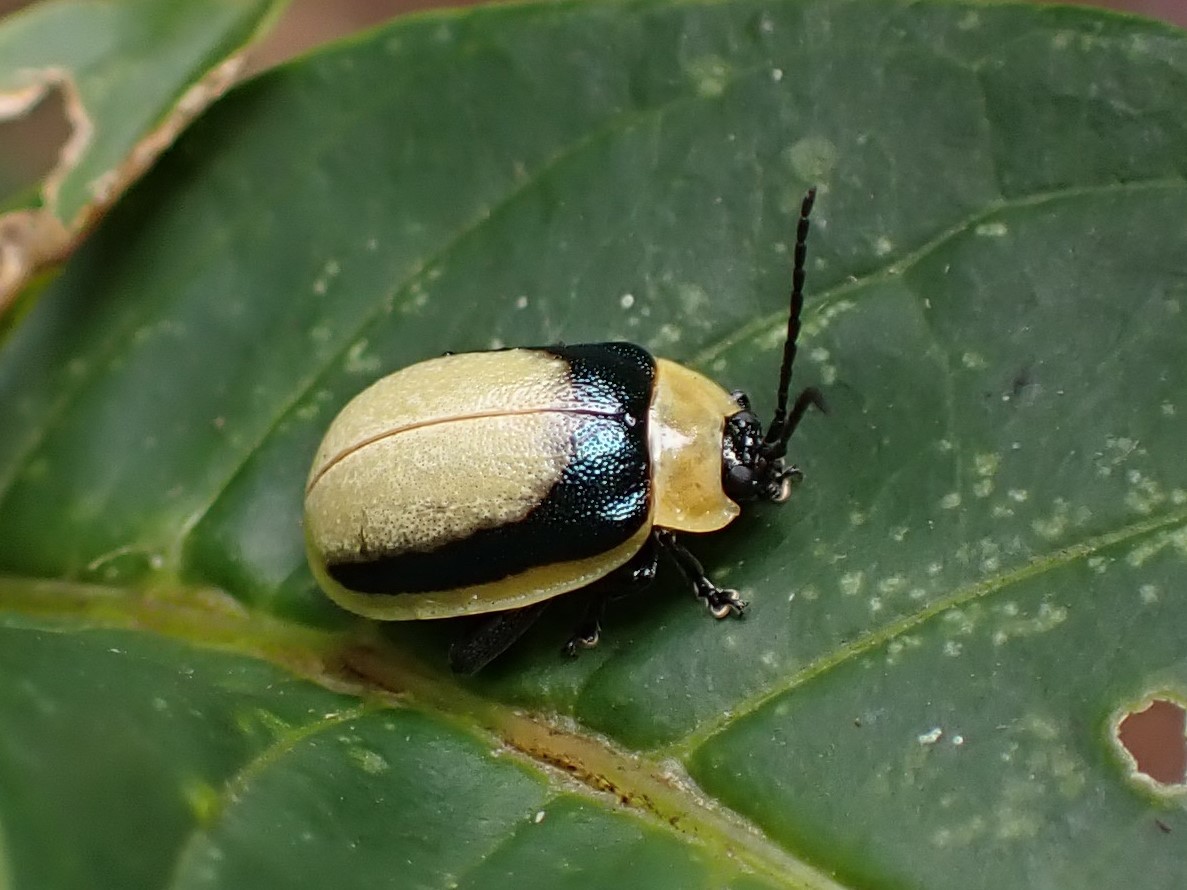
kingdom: Animalia
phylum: Arthropoda
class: Insecta
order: Coleoptera
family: Chrysomelidae
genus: Rhynchasphaera
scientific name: Rhynchasphaera latipleura
